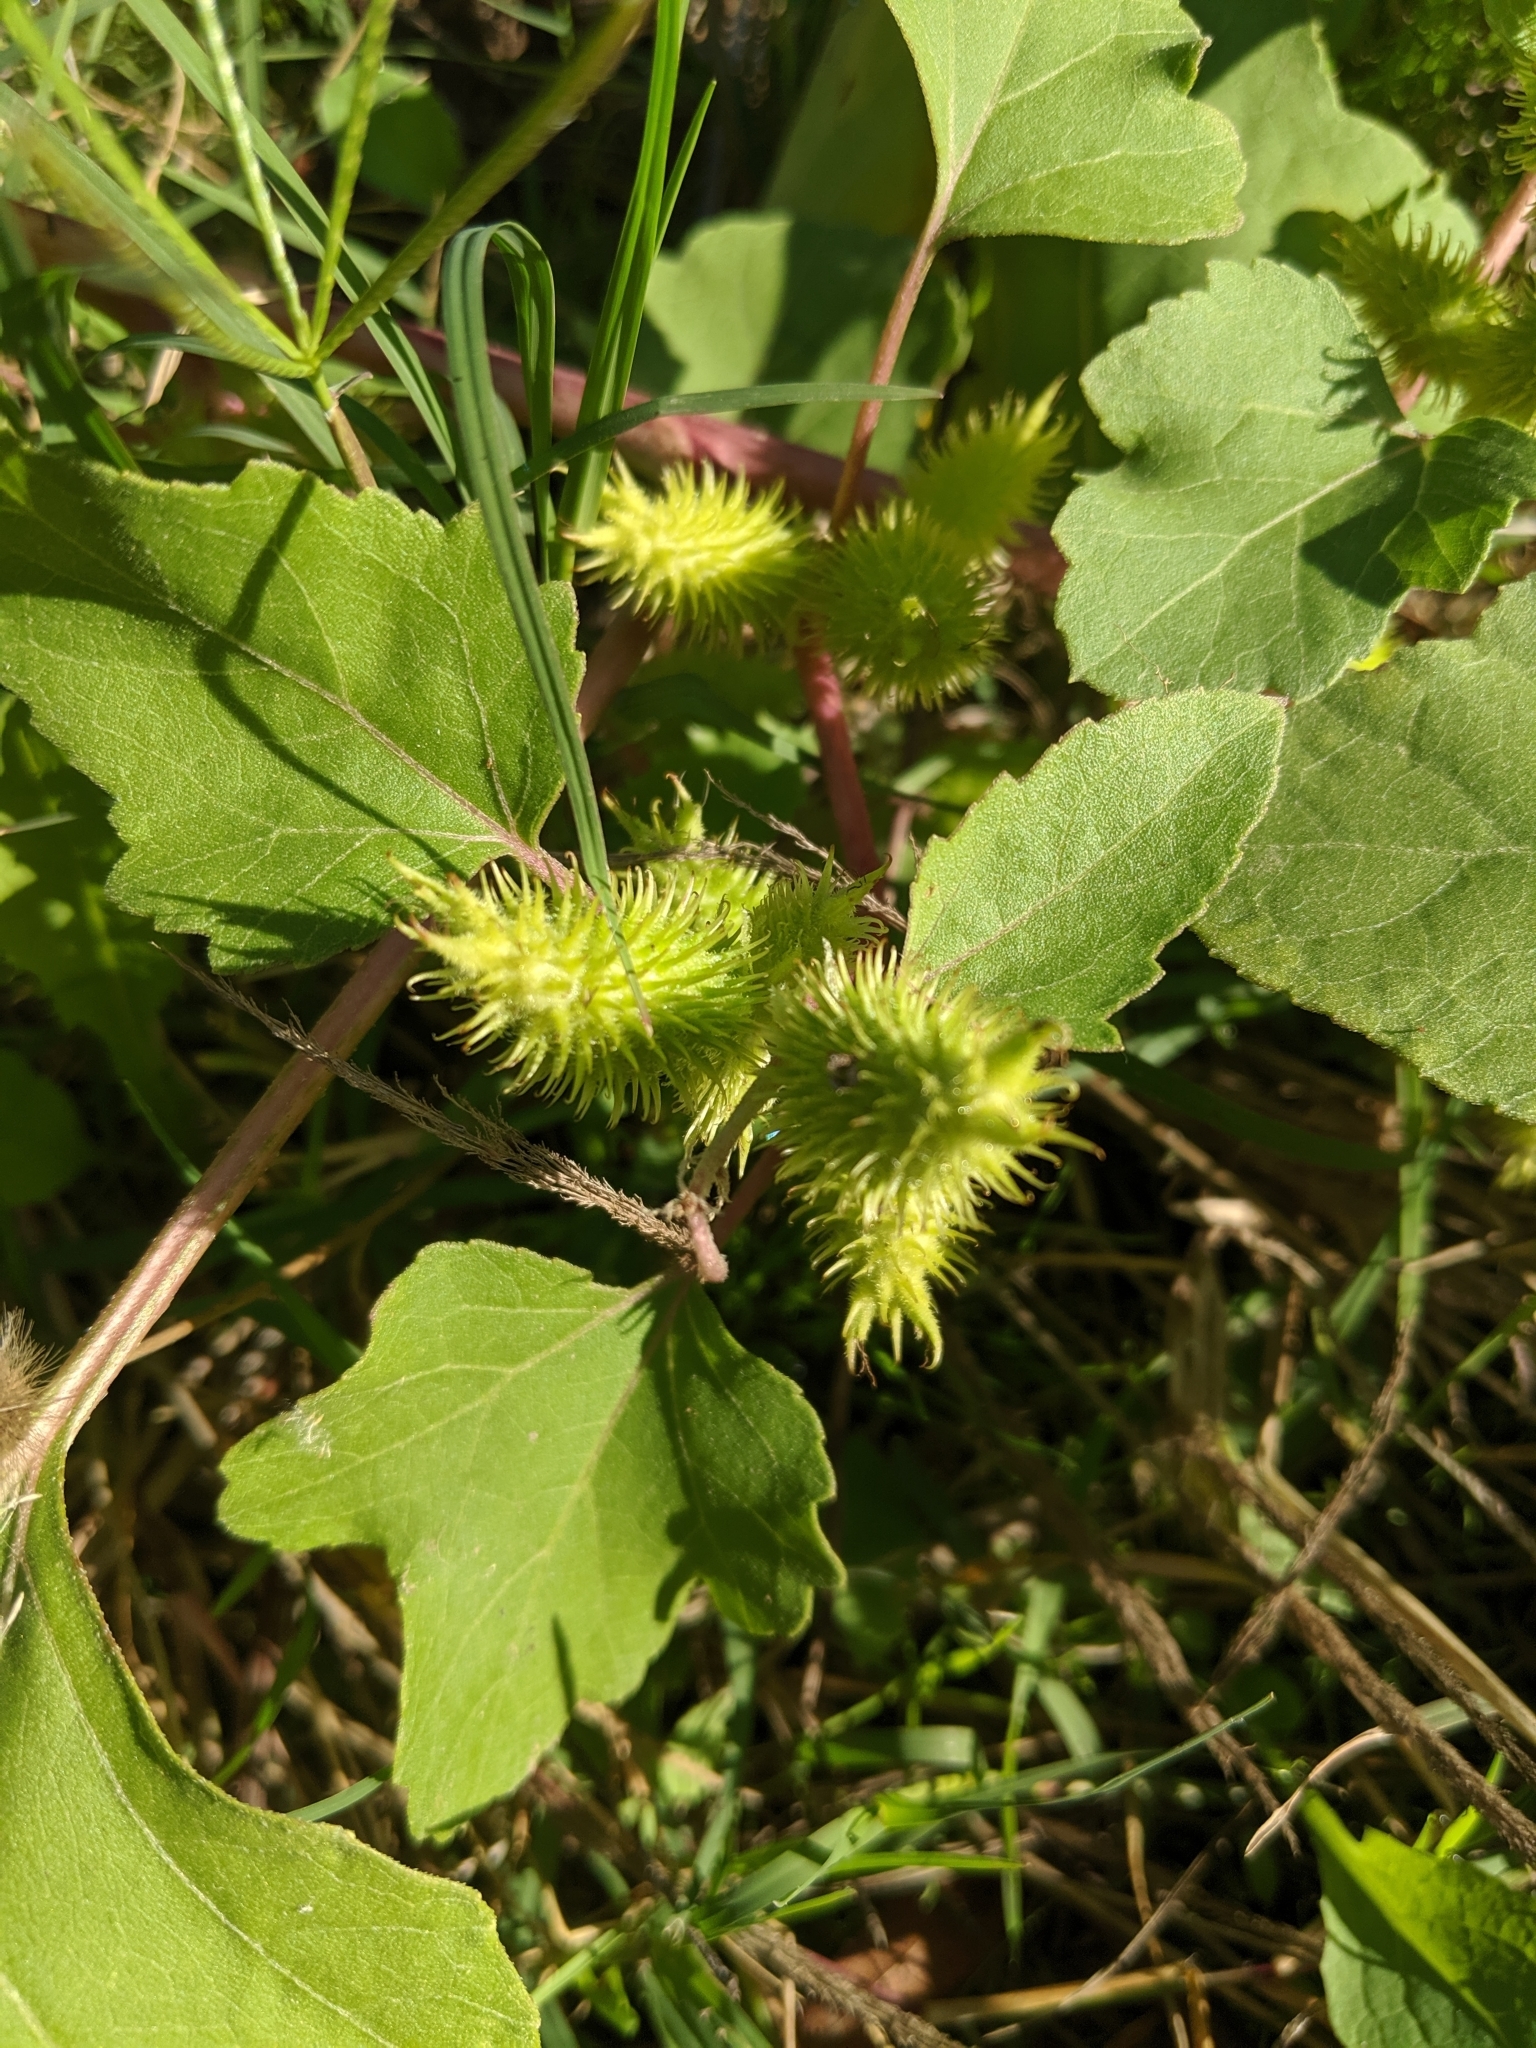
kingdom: Plantae
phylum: Tracheophyta
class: Magnoliopsida
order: Asterales
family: Asteraceae
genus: Xanthium
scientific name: Xanthium strumarium
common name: Rough cocklebur
